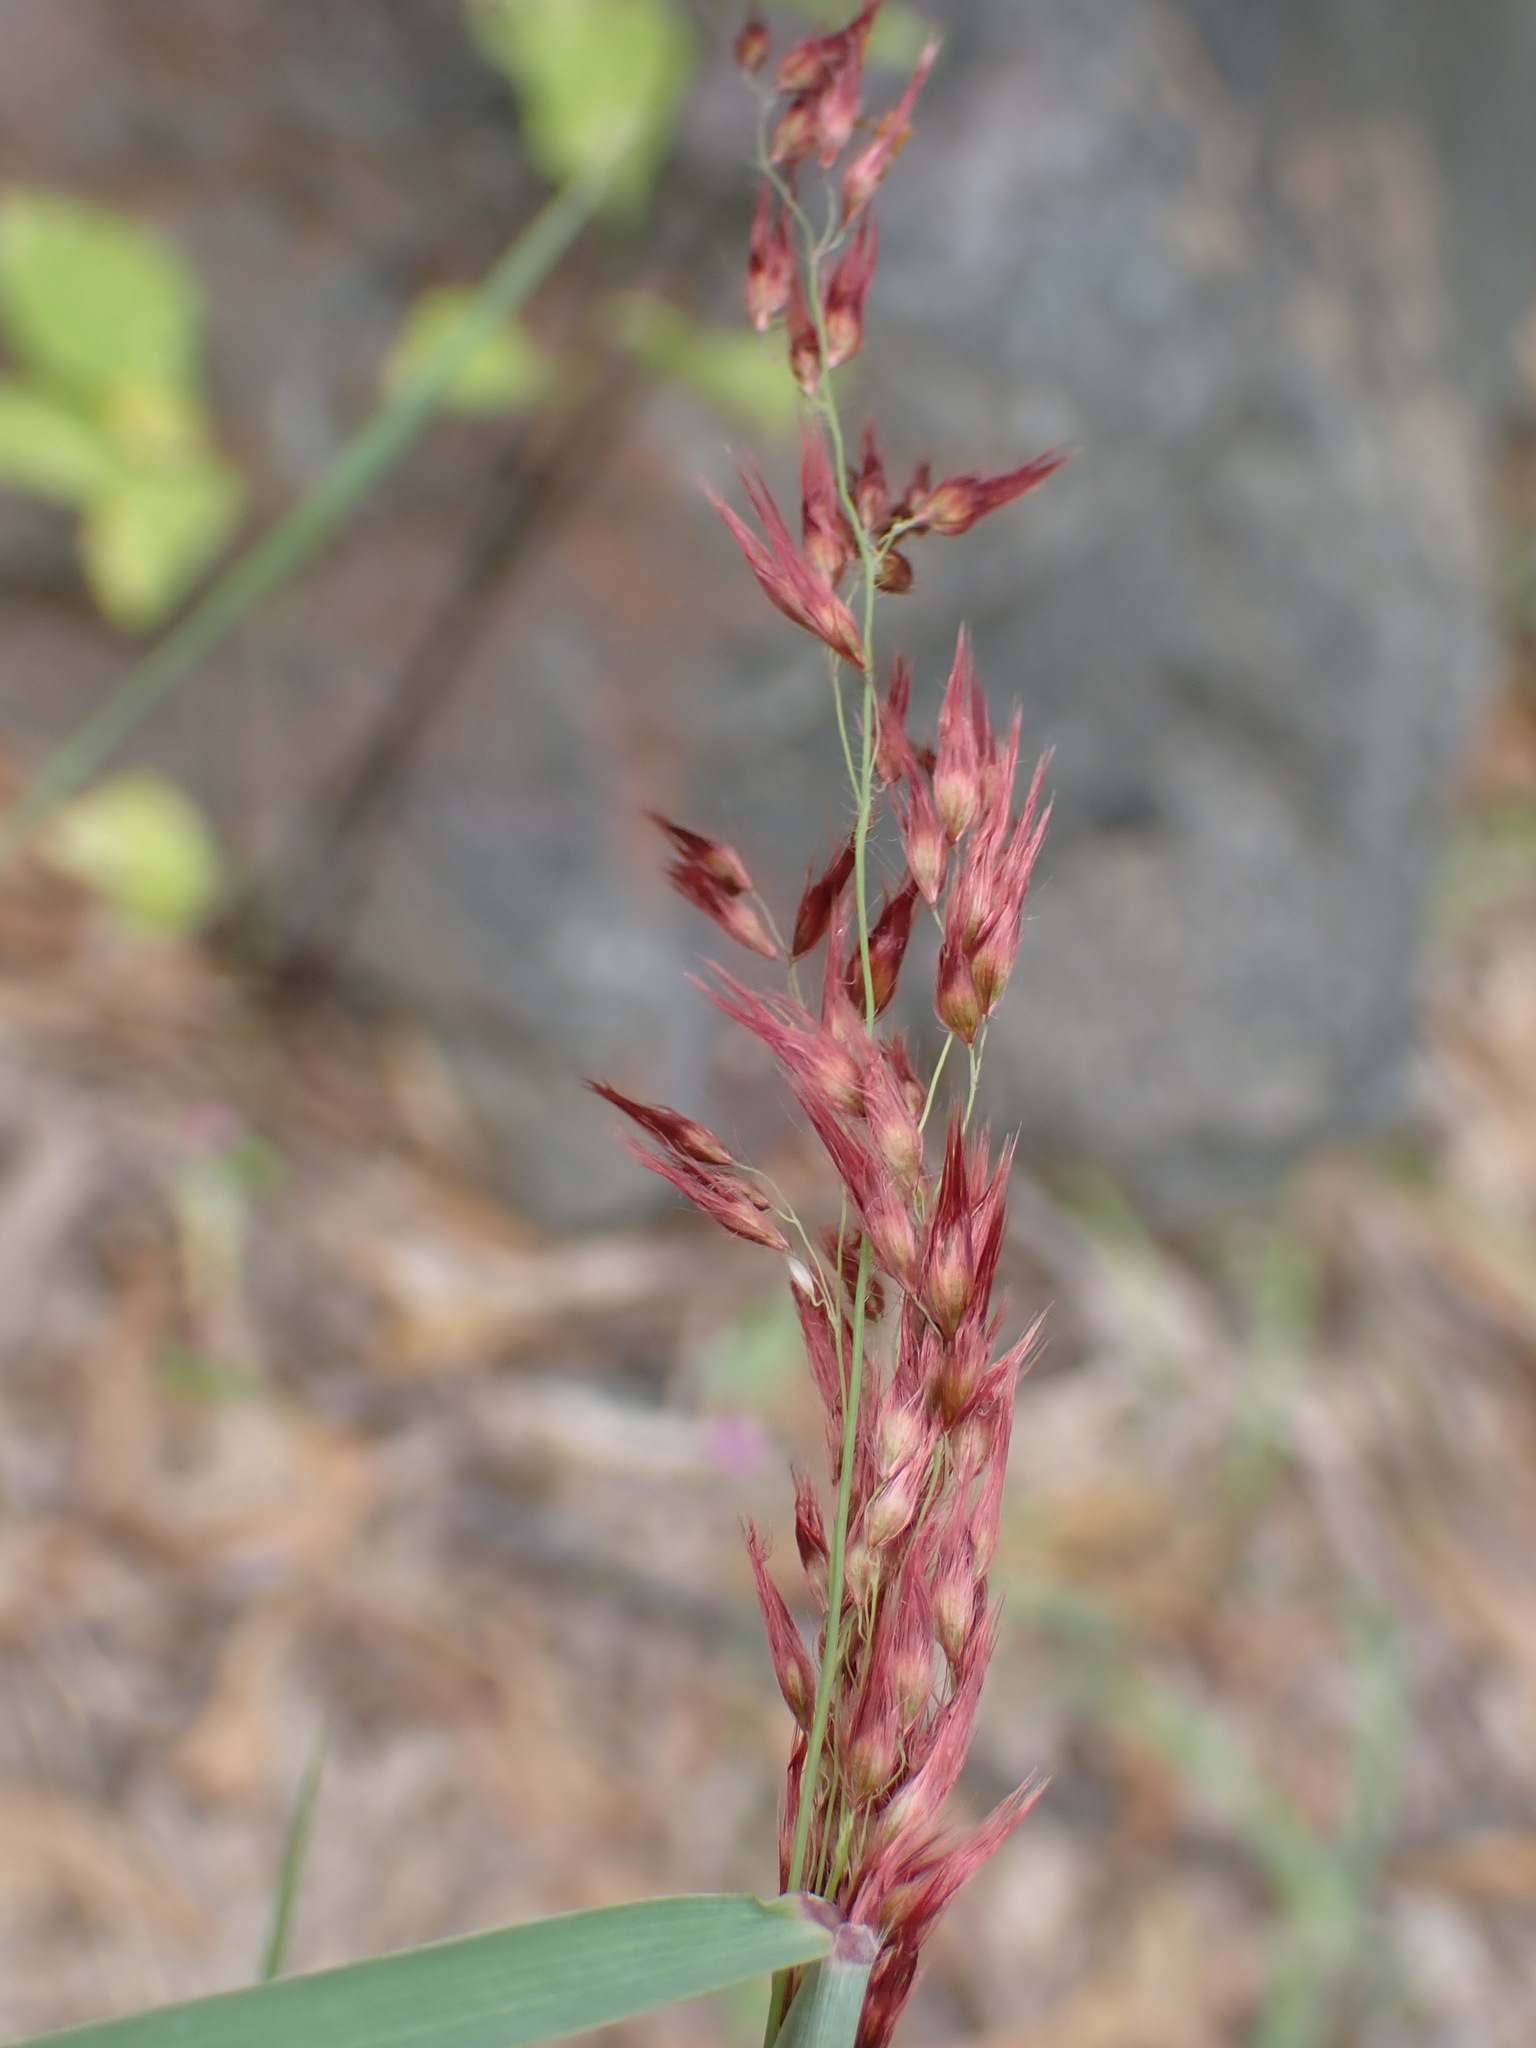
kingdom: Plantae
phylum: Tracheophyta
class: Liliopsida
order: Poales
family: Poaceae
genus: Melinis
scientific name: Melinis repens
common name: Rose natal grass
